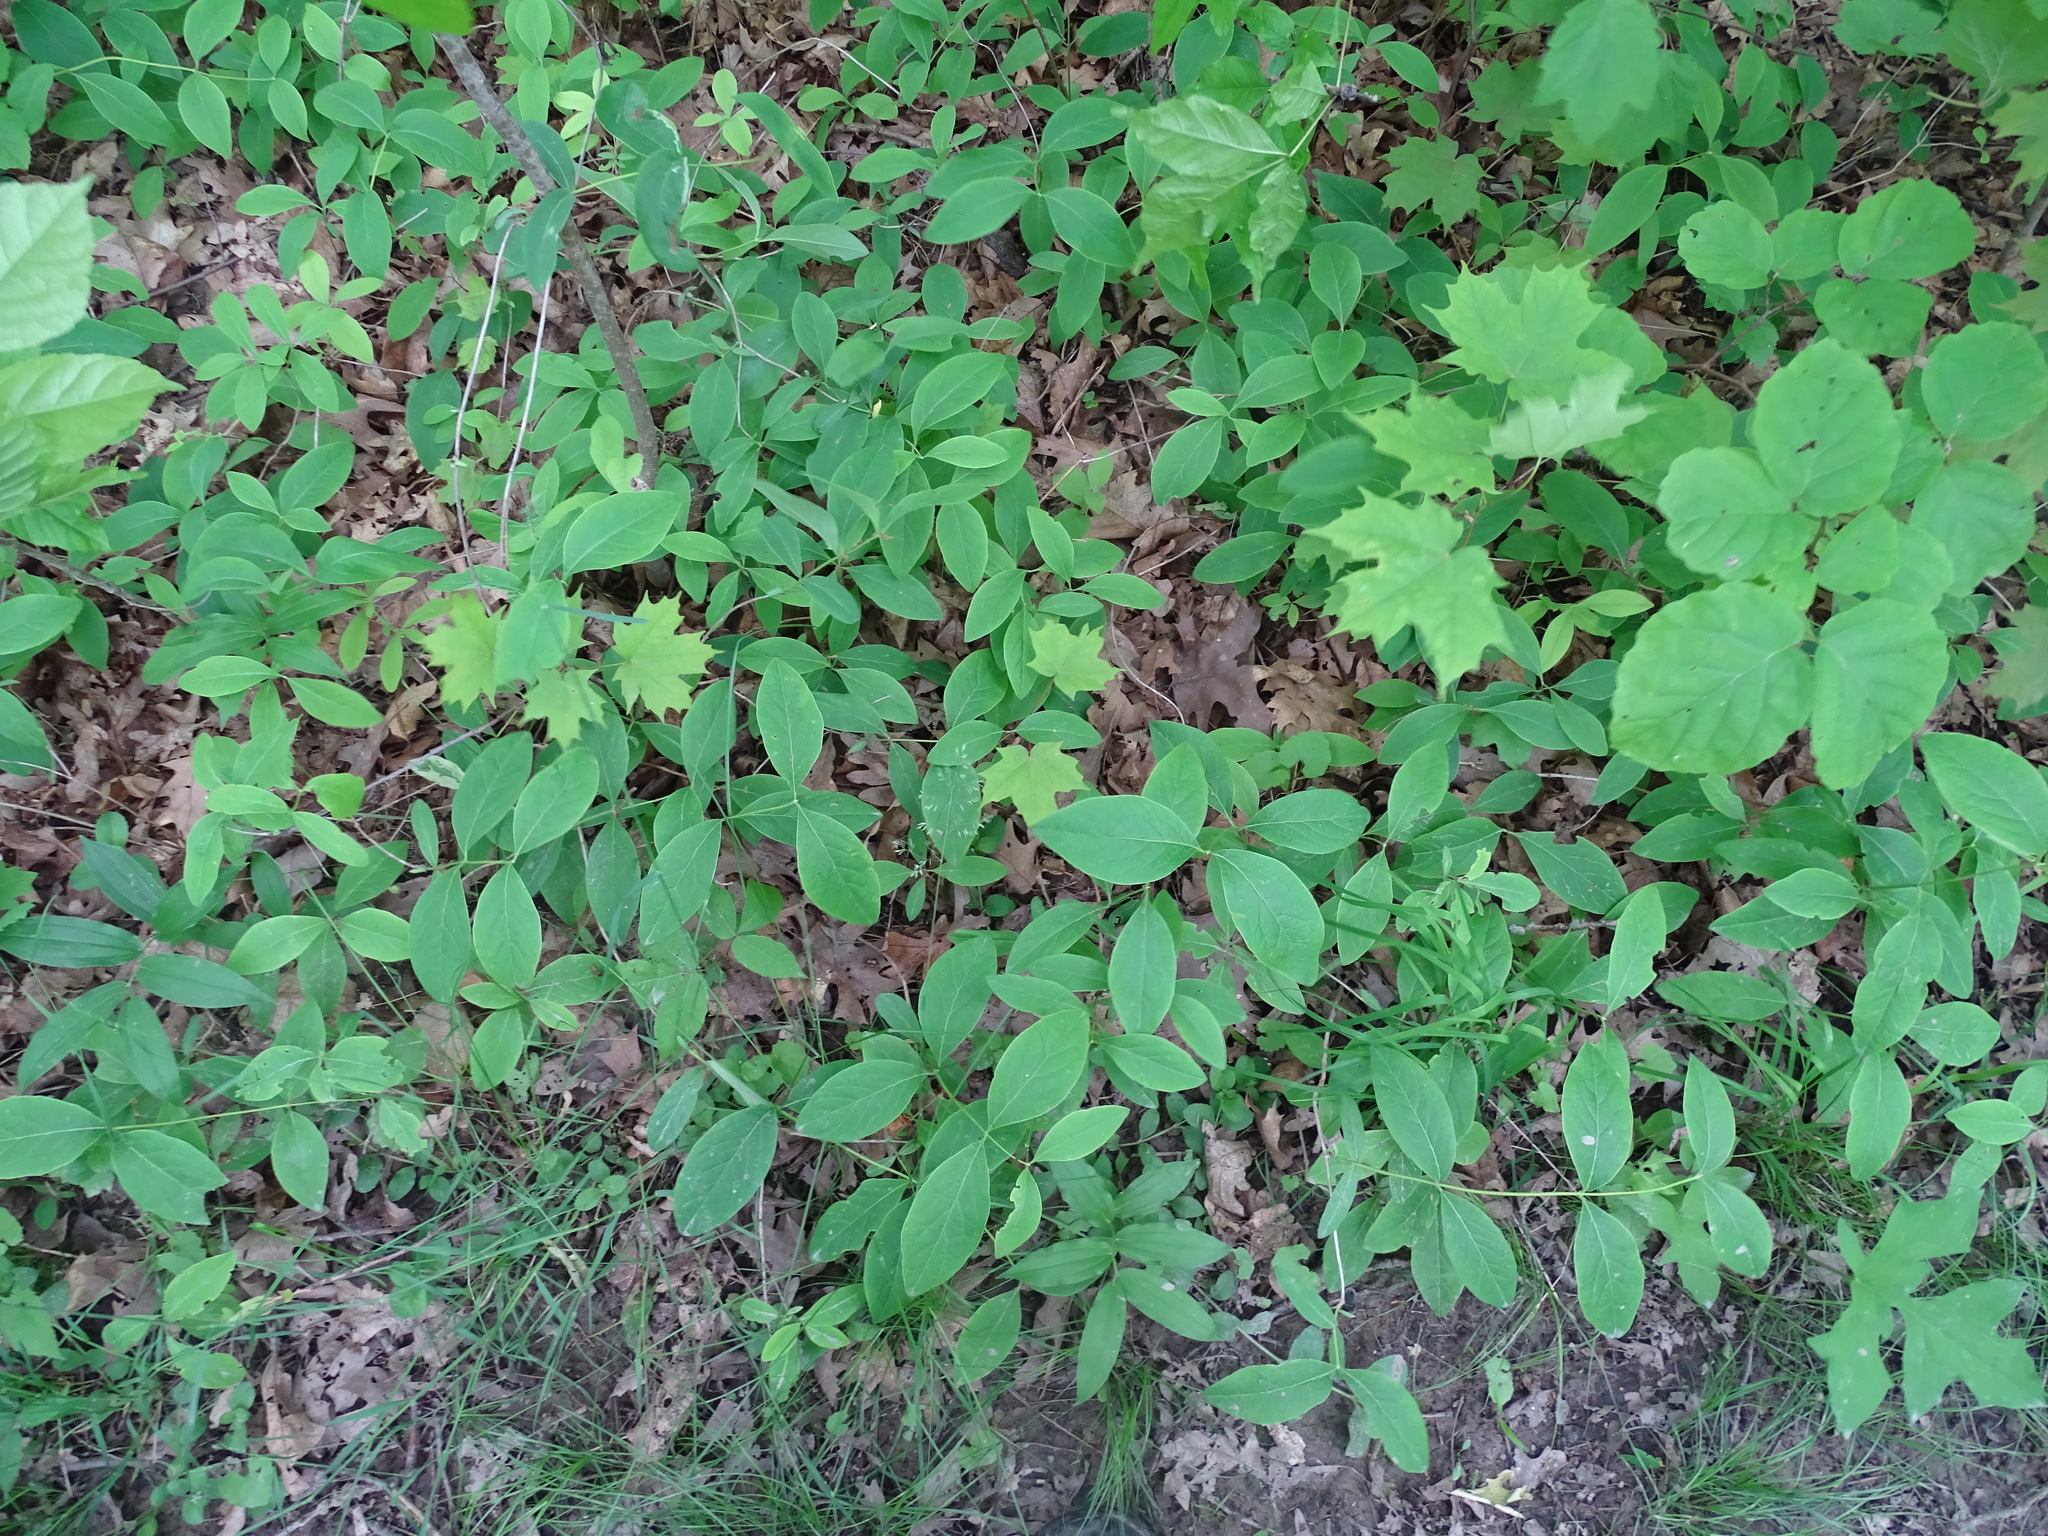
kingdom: Plantae
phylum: Tracheophyta
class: Magnoliopsida
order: Dipsacales
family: Caprifoliaceae
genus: Lonicera
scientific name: Lonicera dioica
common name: Limber honeysuckle
